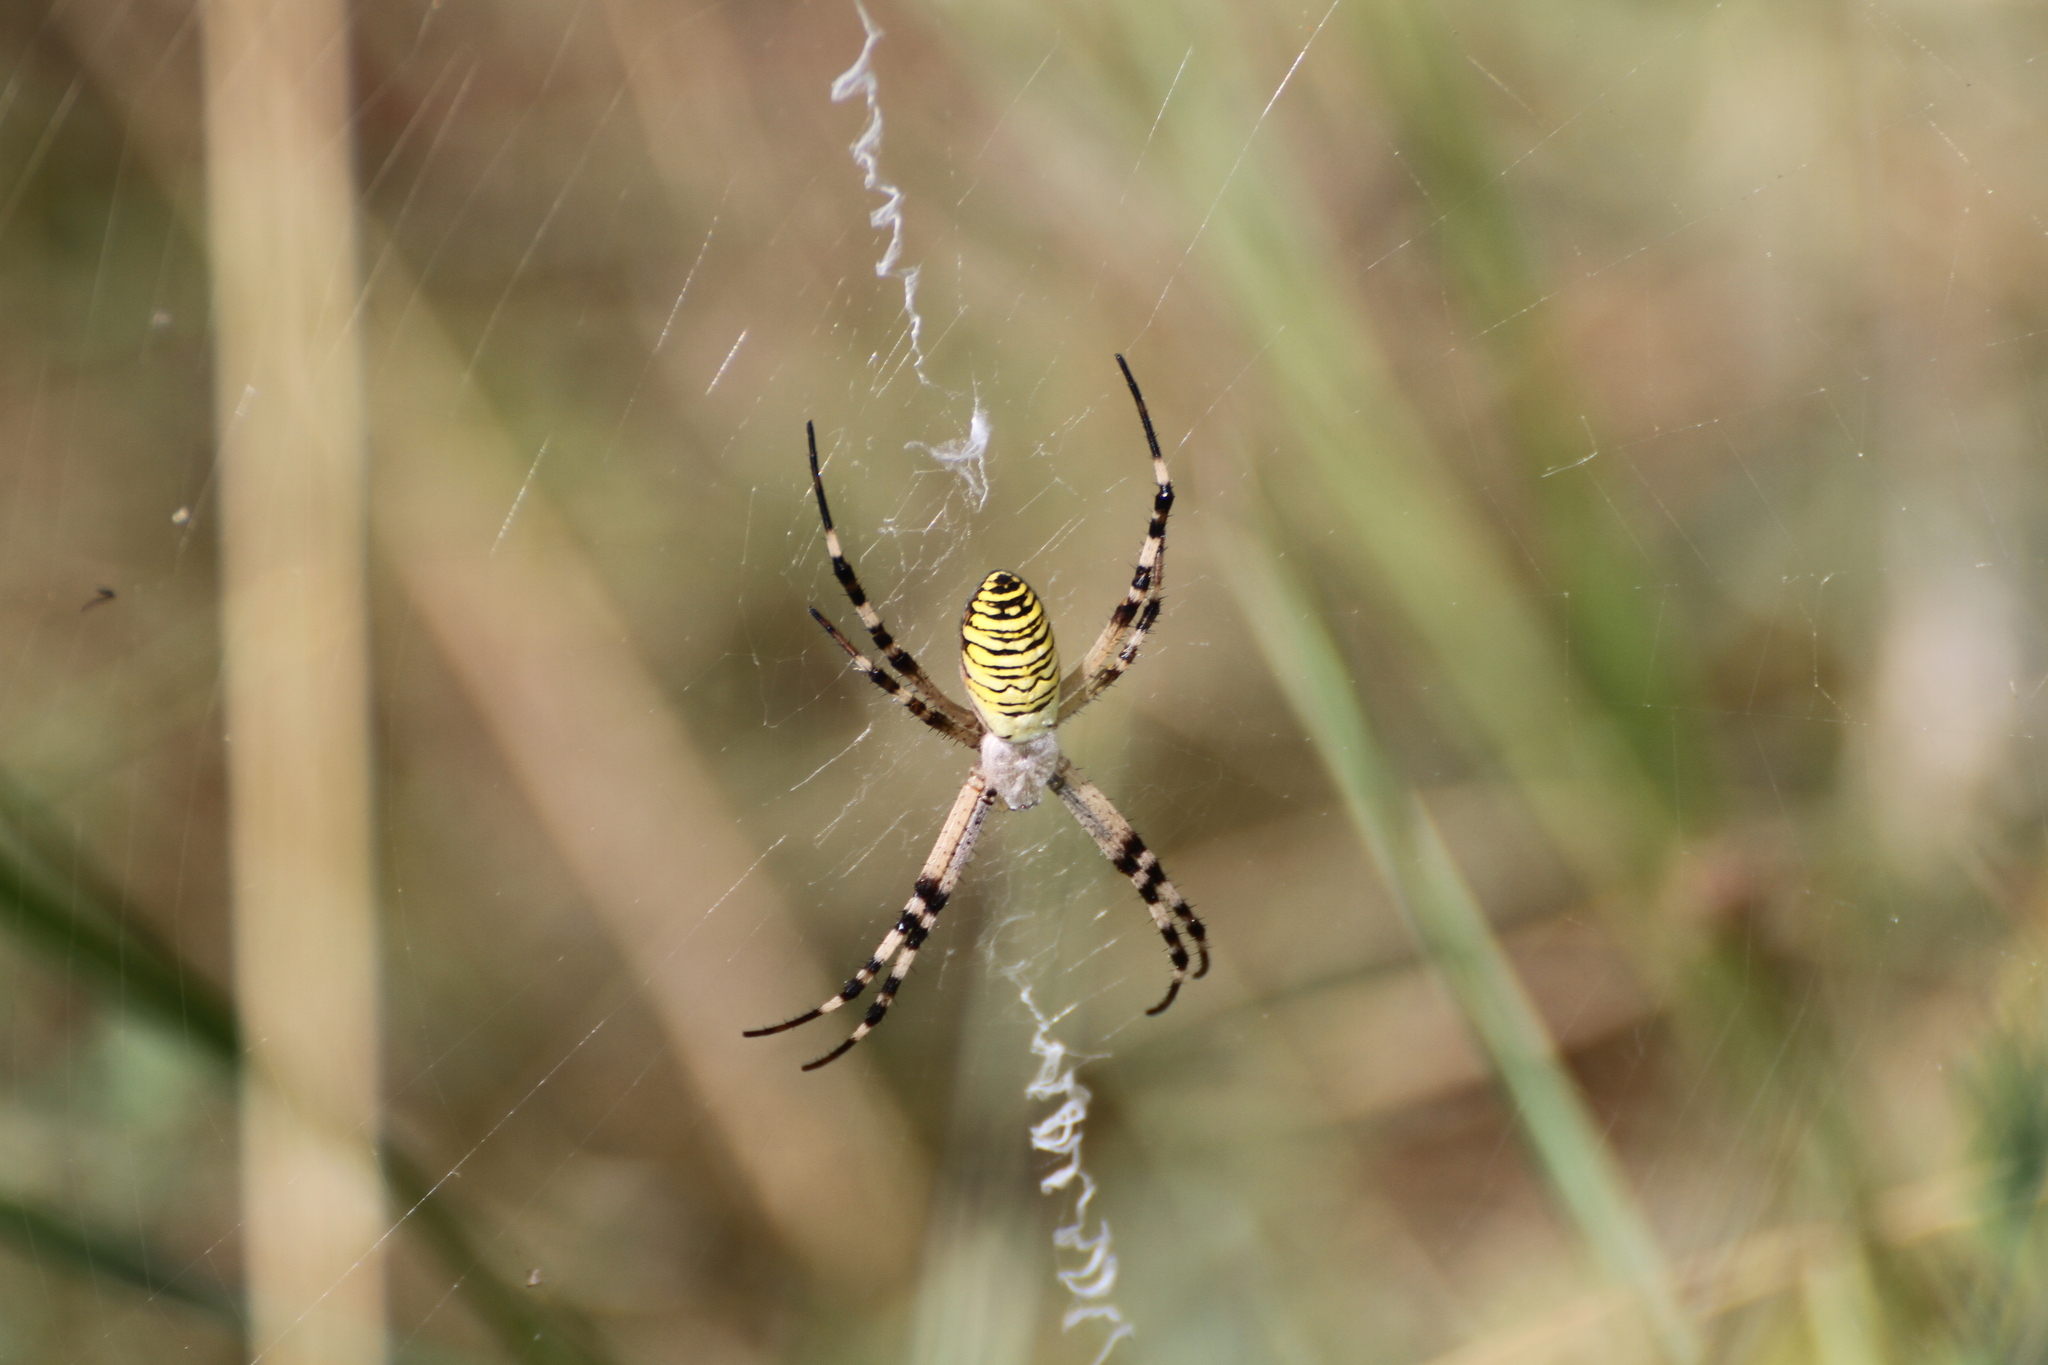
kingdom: Animalia
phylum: Arthropoda
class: Arachnida
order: Araneae
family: Araneidae
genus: Argiope
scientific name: Argiope bruennichi
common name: Wasp spider
